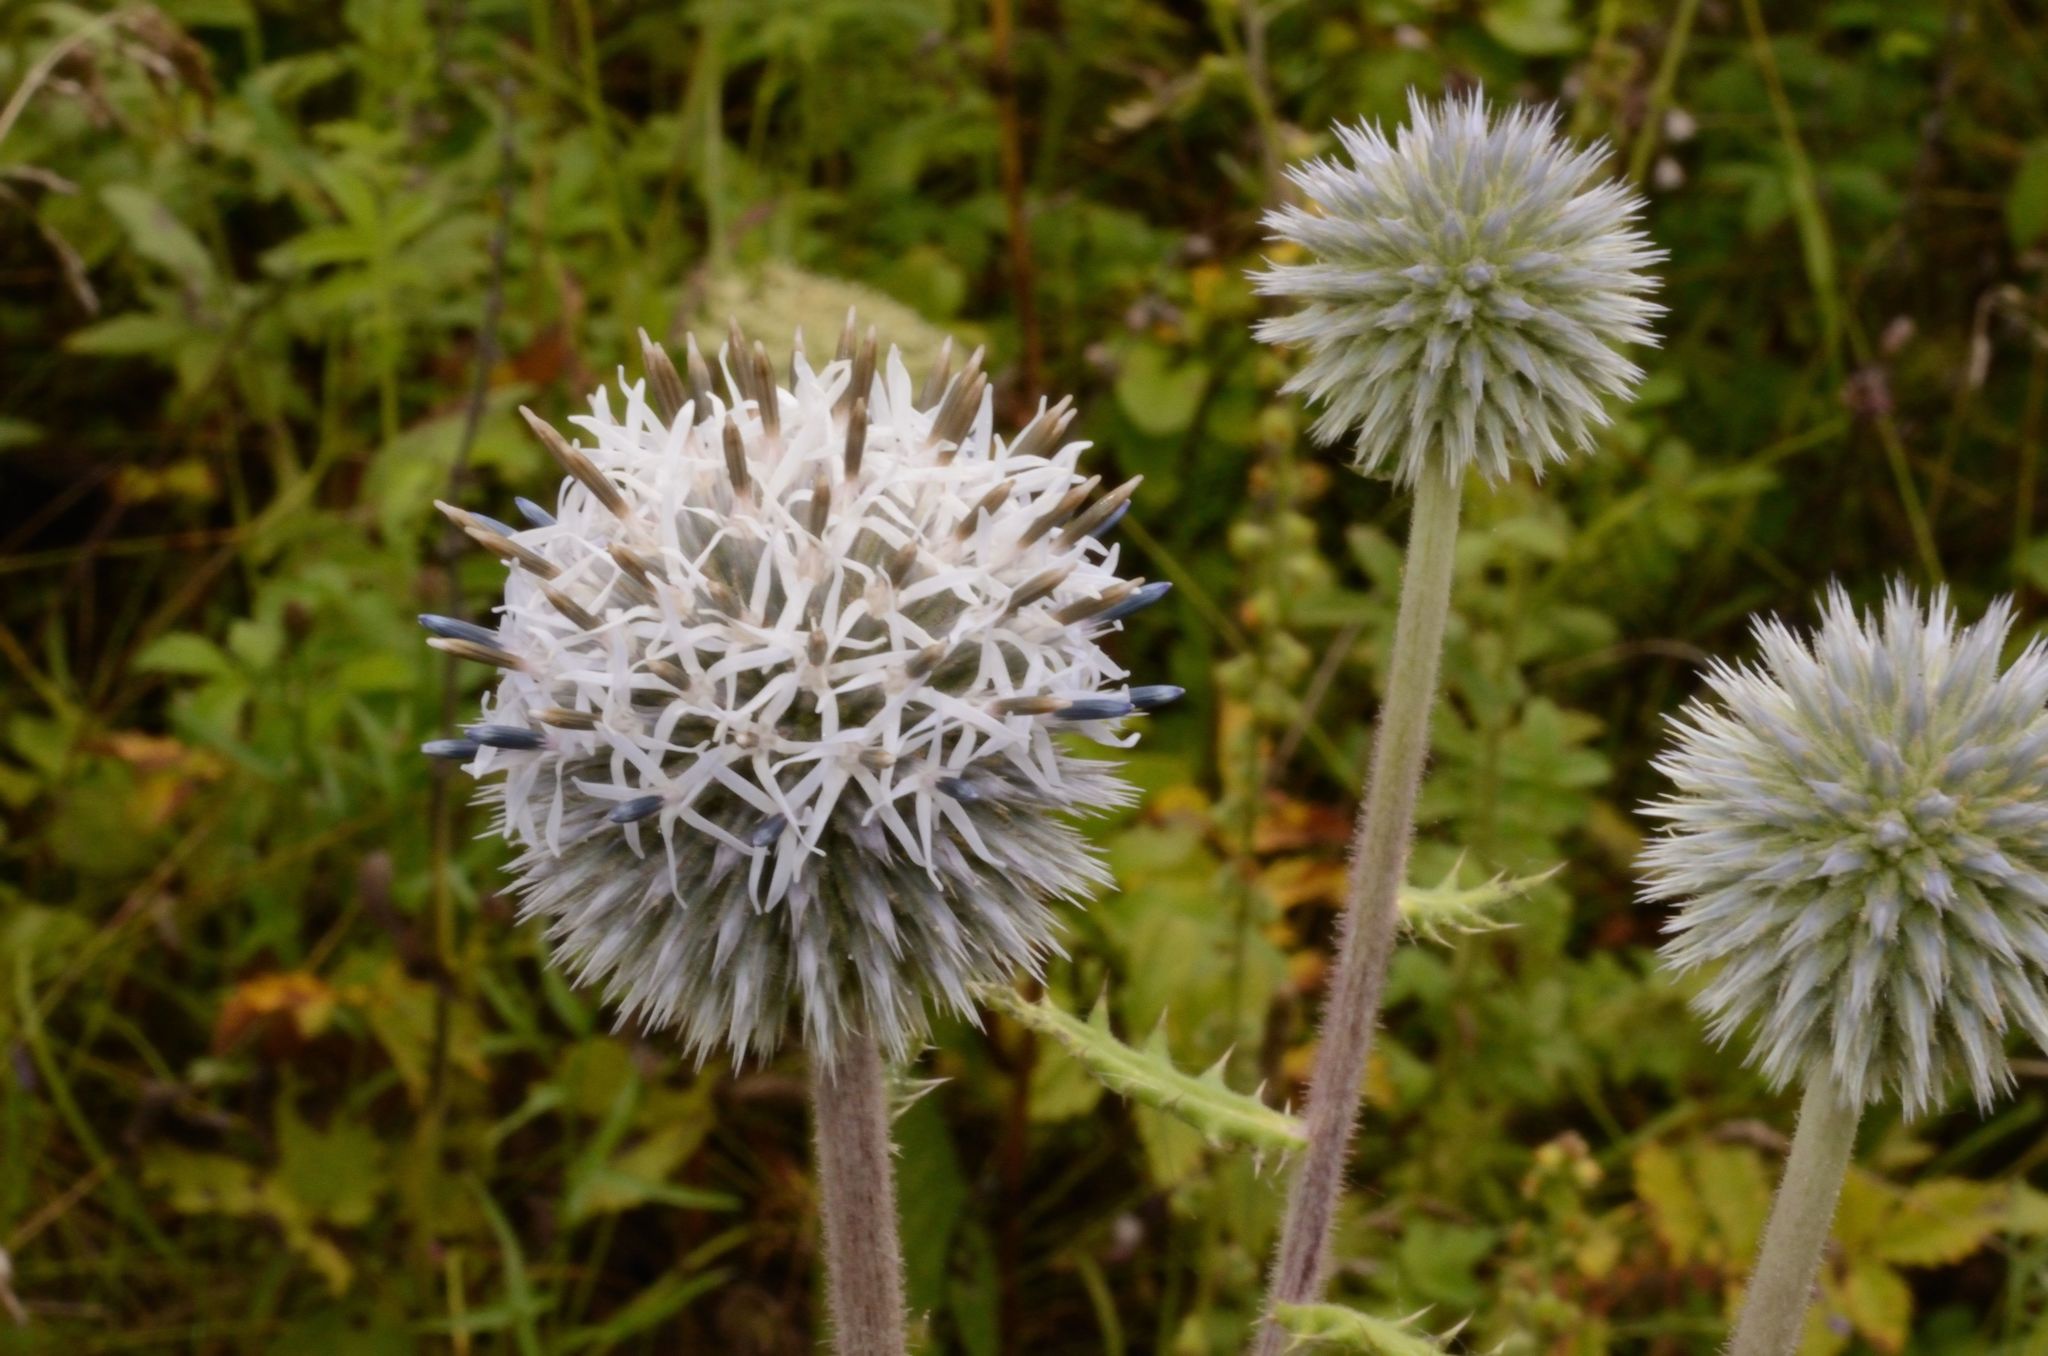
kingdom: Plantae
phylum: Tracheophyta
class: Magnoliopsida
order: Asterales
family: Asteraceae
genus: Echinops
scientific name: Echinops sphaerocephalus
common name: Glandular globe-thistle
